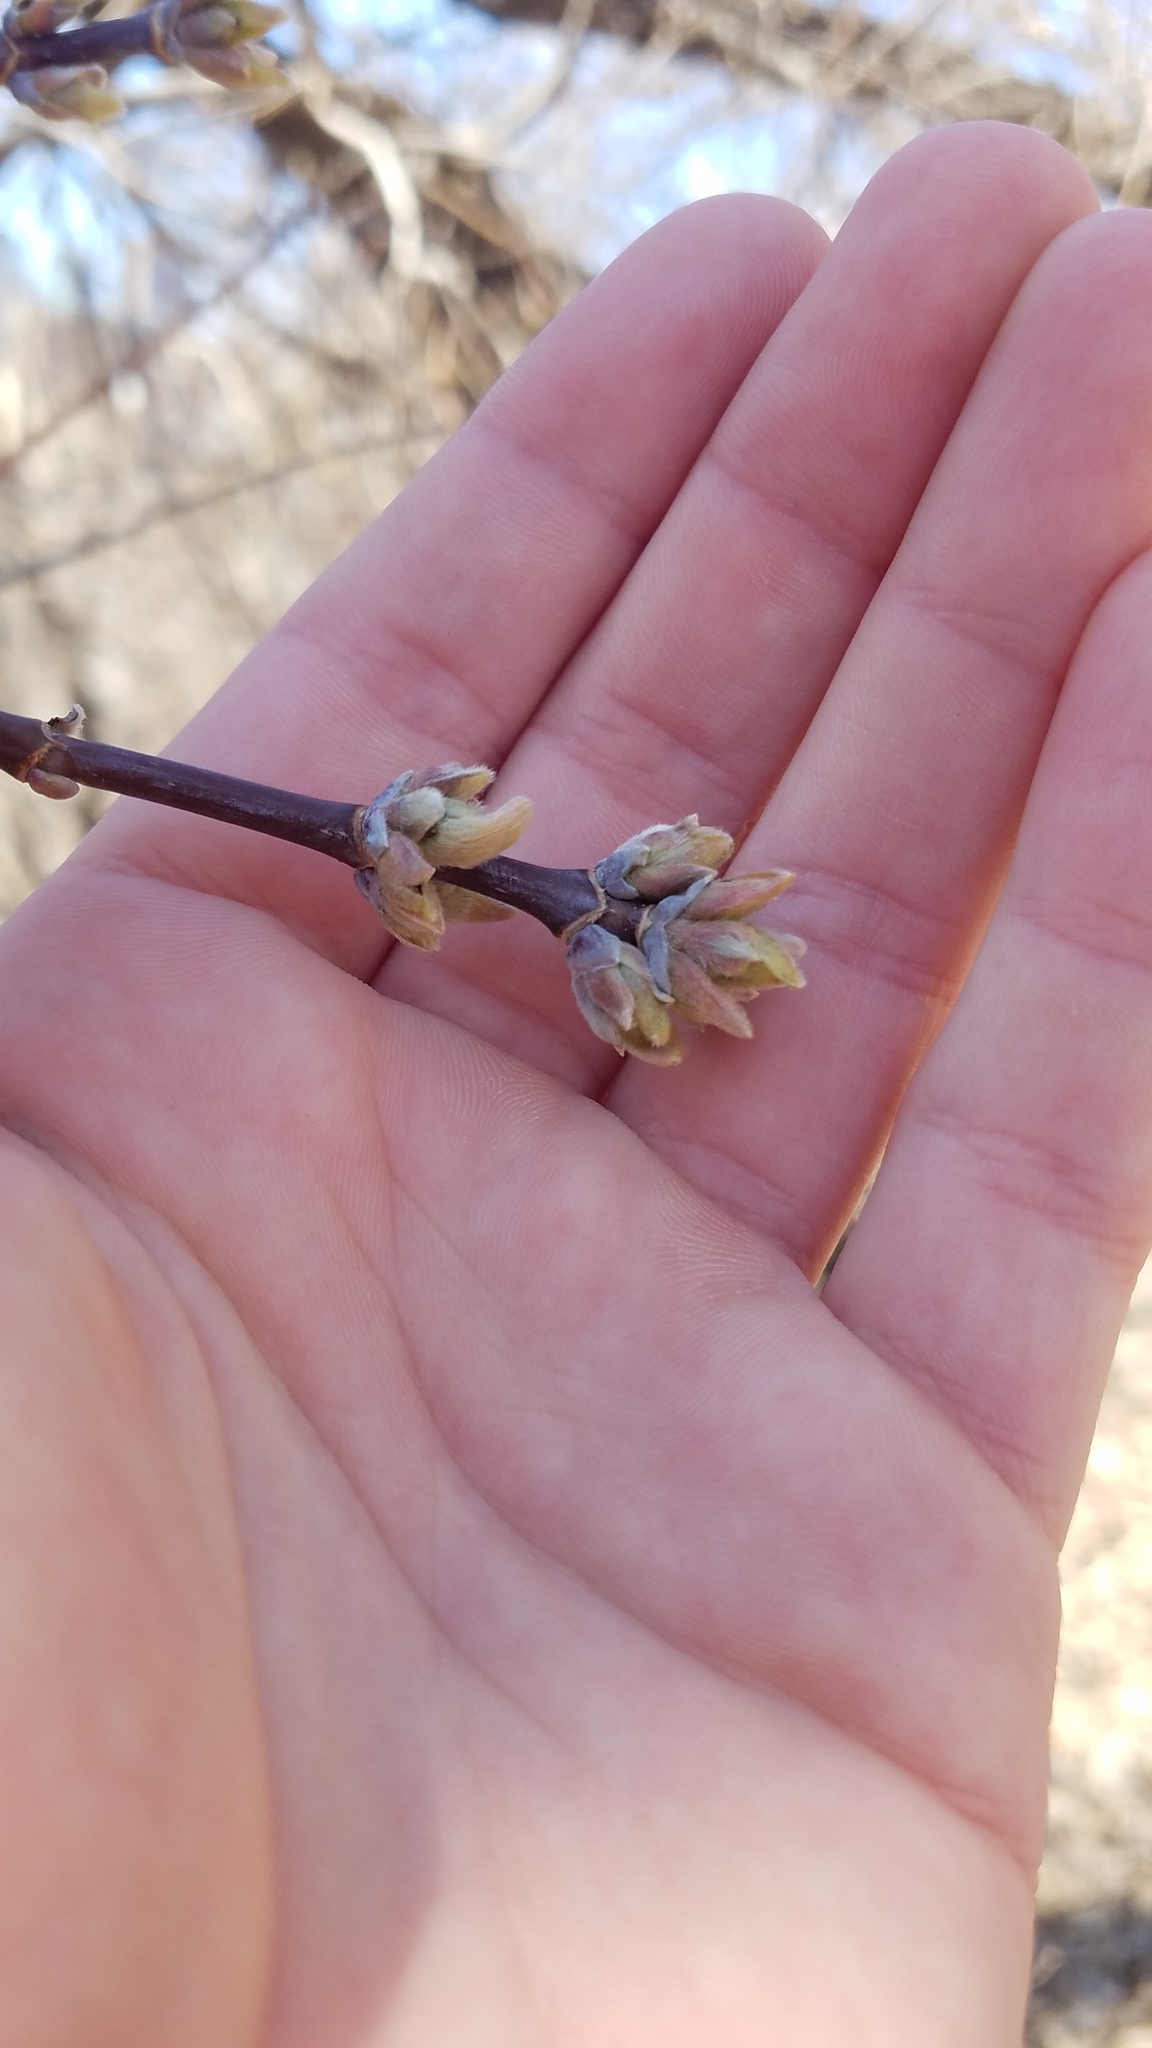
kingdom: Plantae
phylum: Tracheophyta
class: Magnoliopsida
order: Sapindales
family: Sapindaceae
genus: Acer
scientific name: Acer negundo
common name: Ashleaf maple
